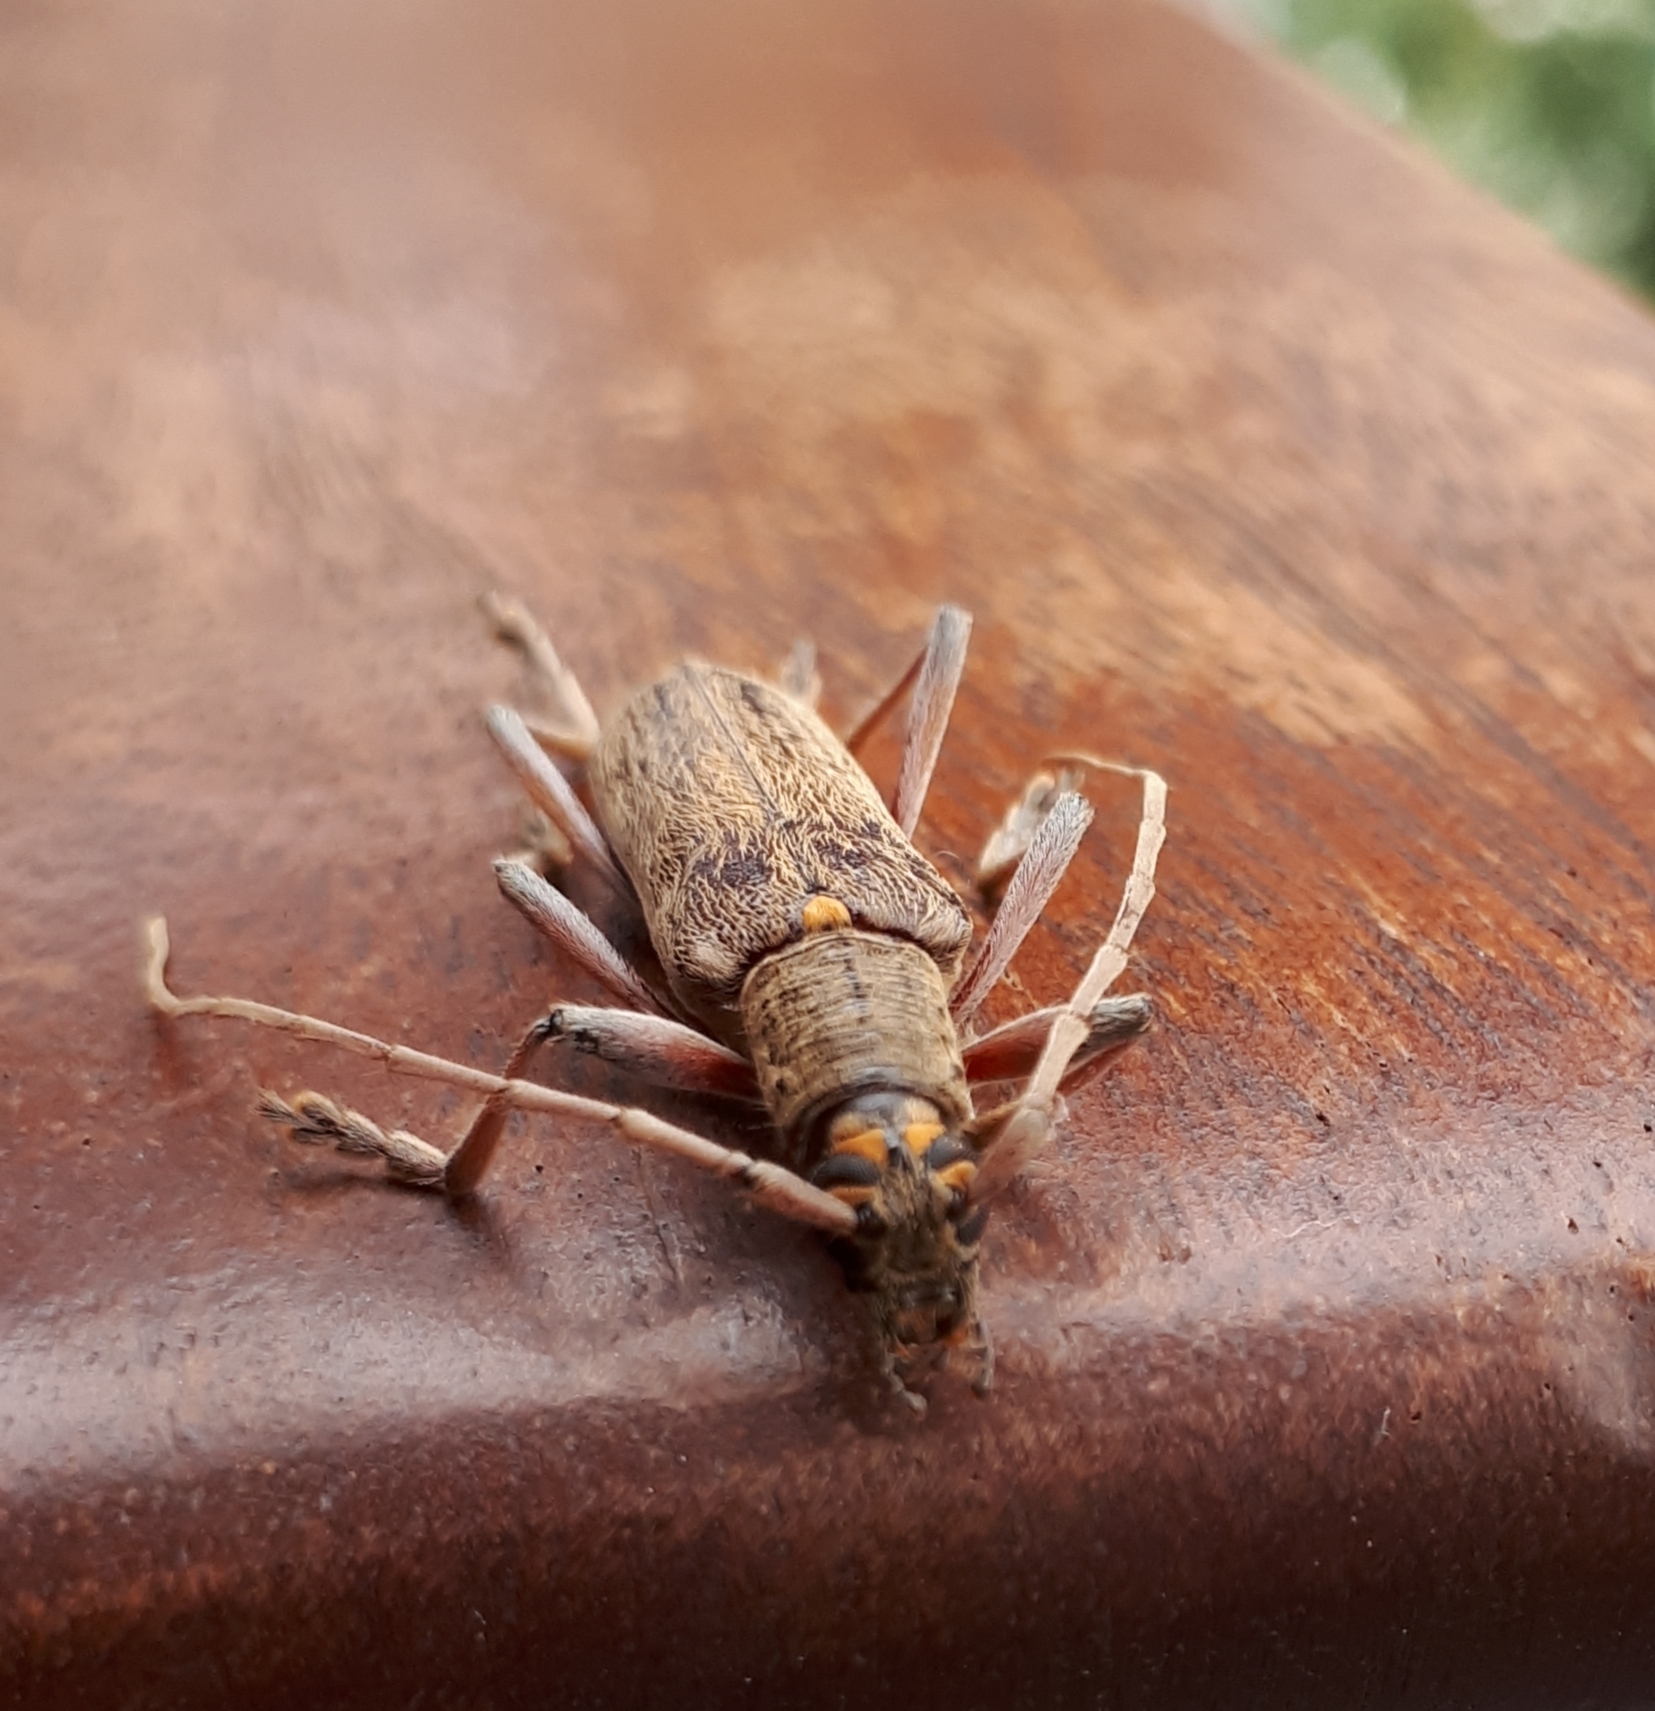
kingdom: Animalia
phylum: Arthropoda
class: Insecta
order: Coleoptera
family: Cerambycidae
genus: Oemona
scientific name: Oemona hirta
